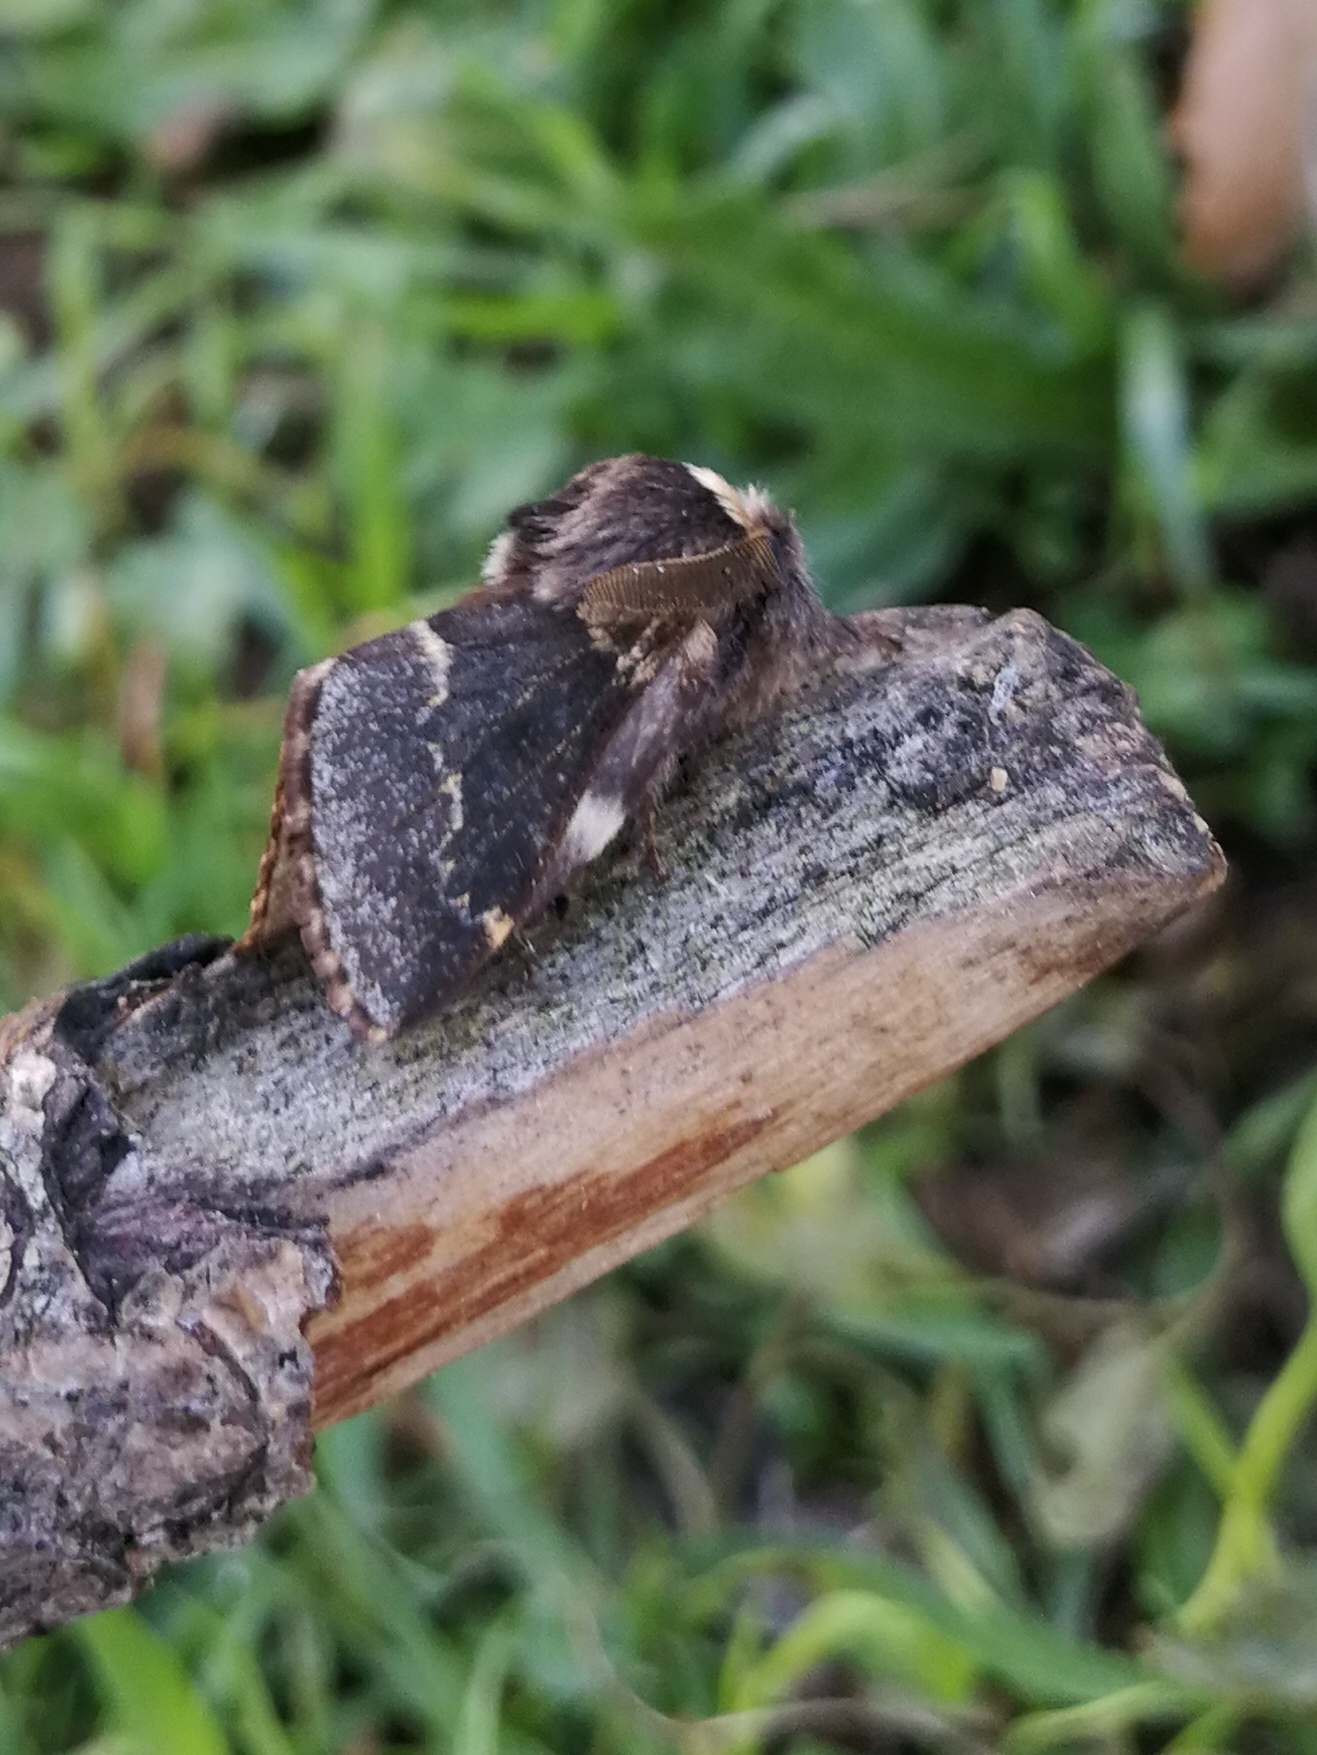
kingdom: Animalia
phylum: Arthropoda
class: Insecta
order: Lepidoptera
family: Lasiocampidae
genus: Poecilocampa
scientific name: Poecilocampa populi
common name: December moth
